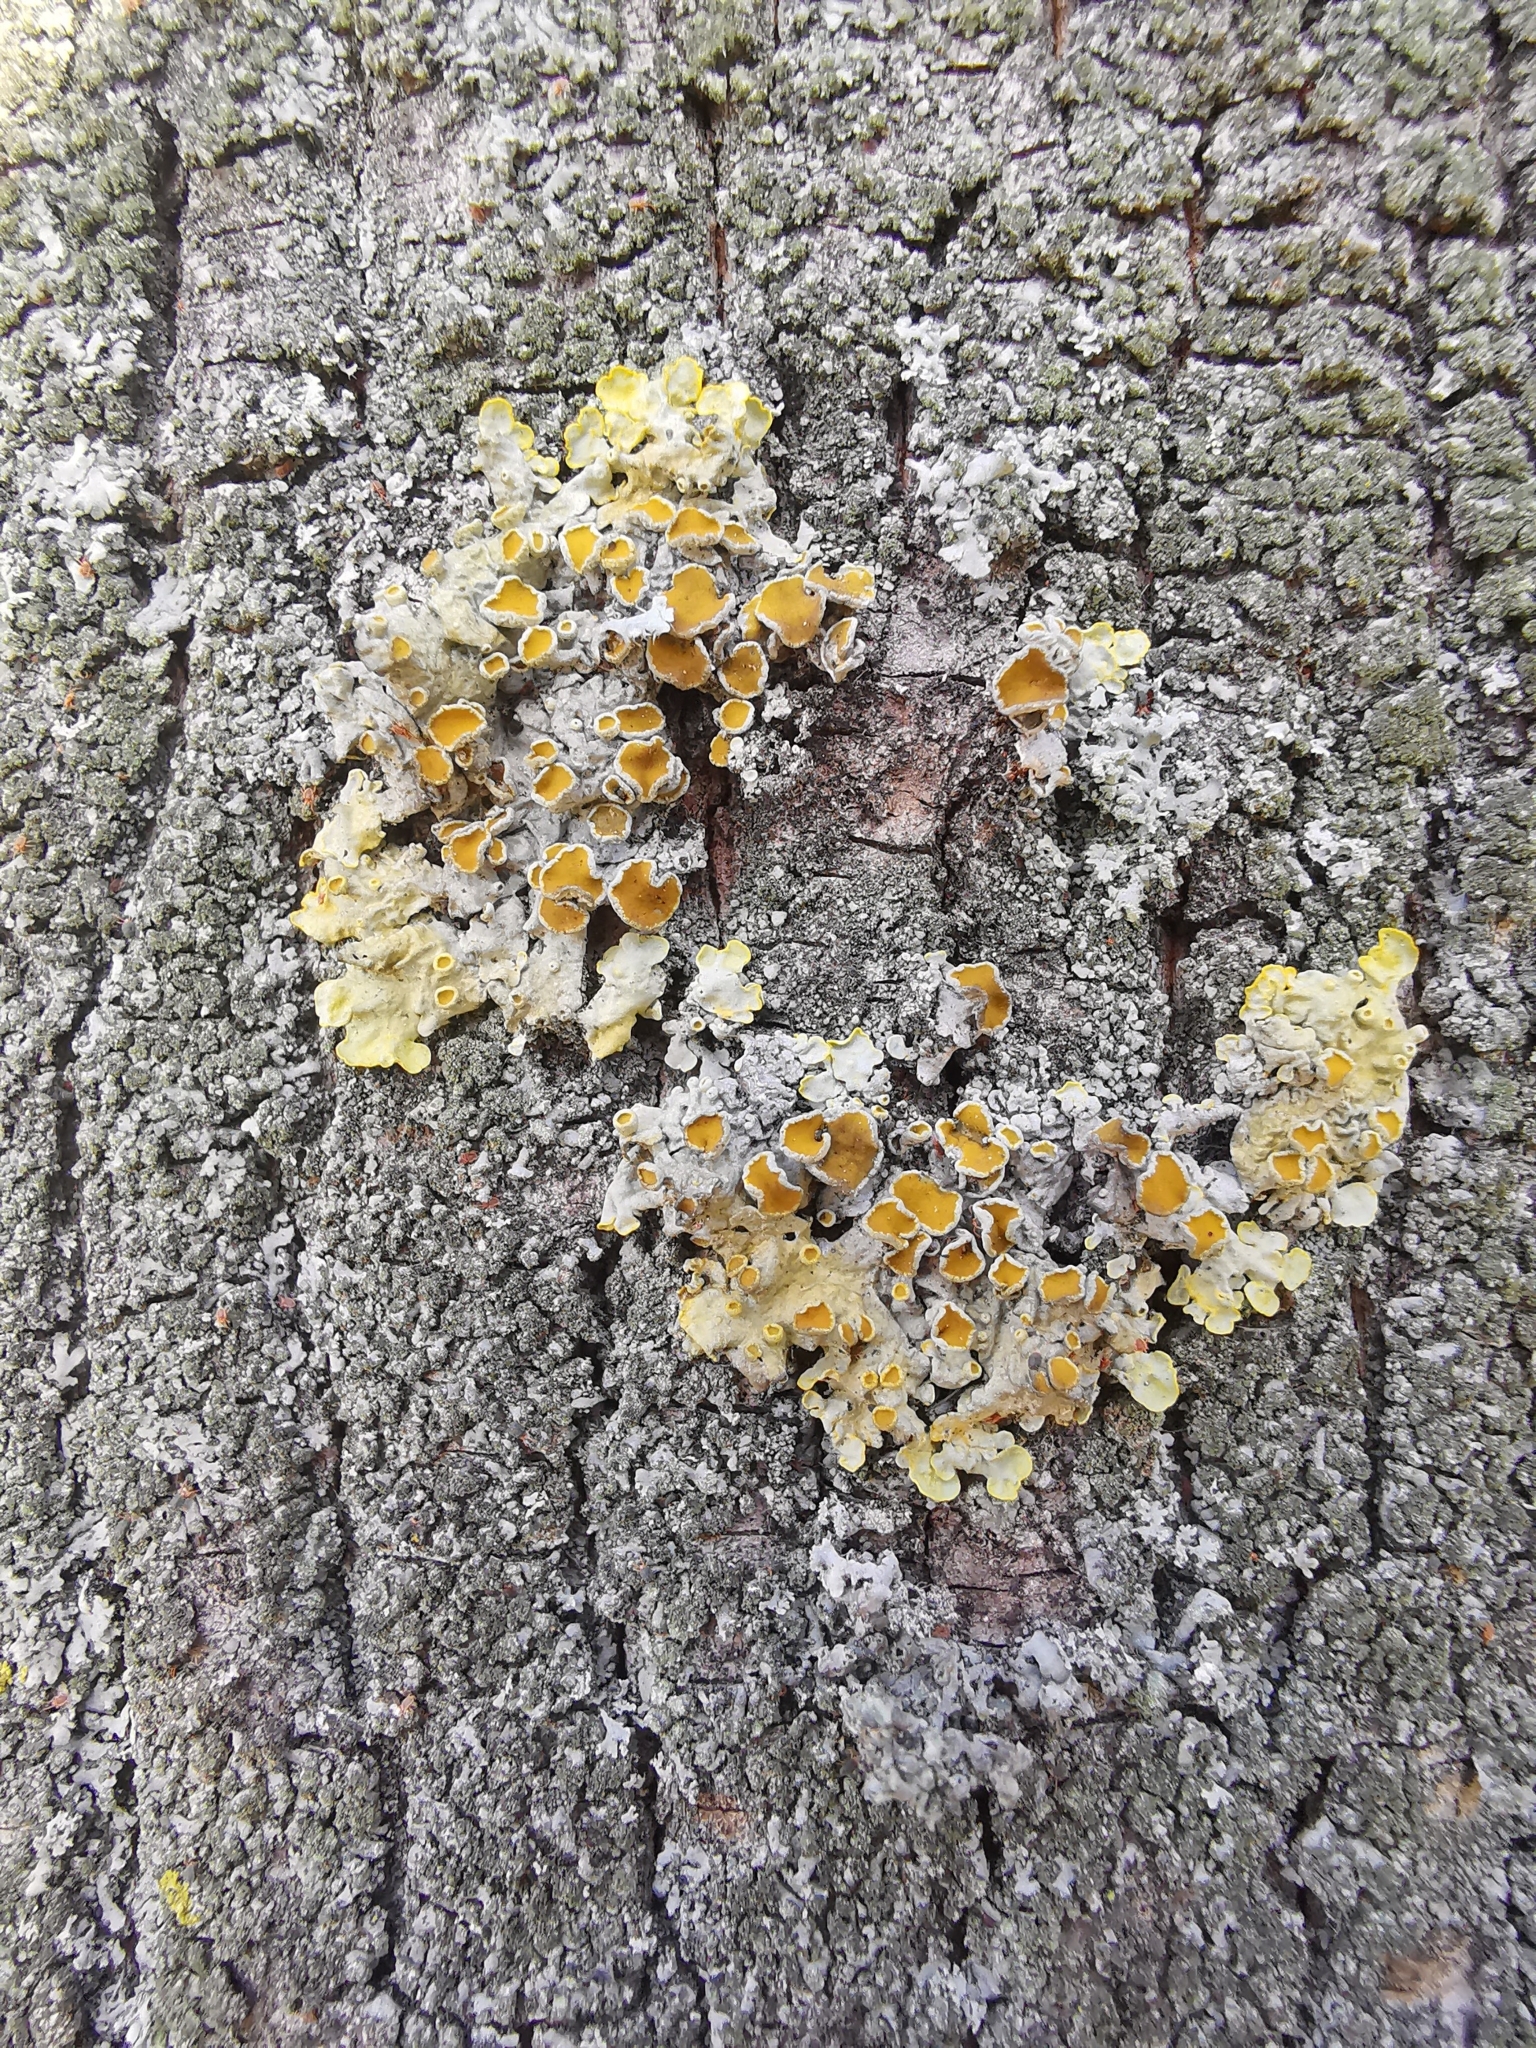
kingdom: Fungi
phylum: Ascomycota
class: Lecanoromycetes
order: Teloschistales
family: Teloschistaceae
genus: Xanthoria
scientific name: Xanthoria parietina
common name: Common orange lichen
